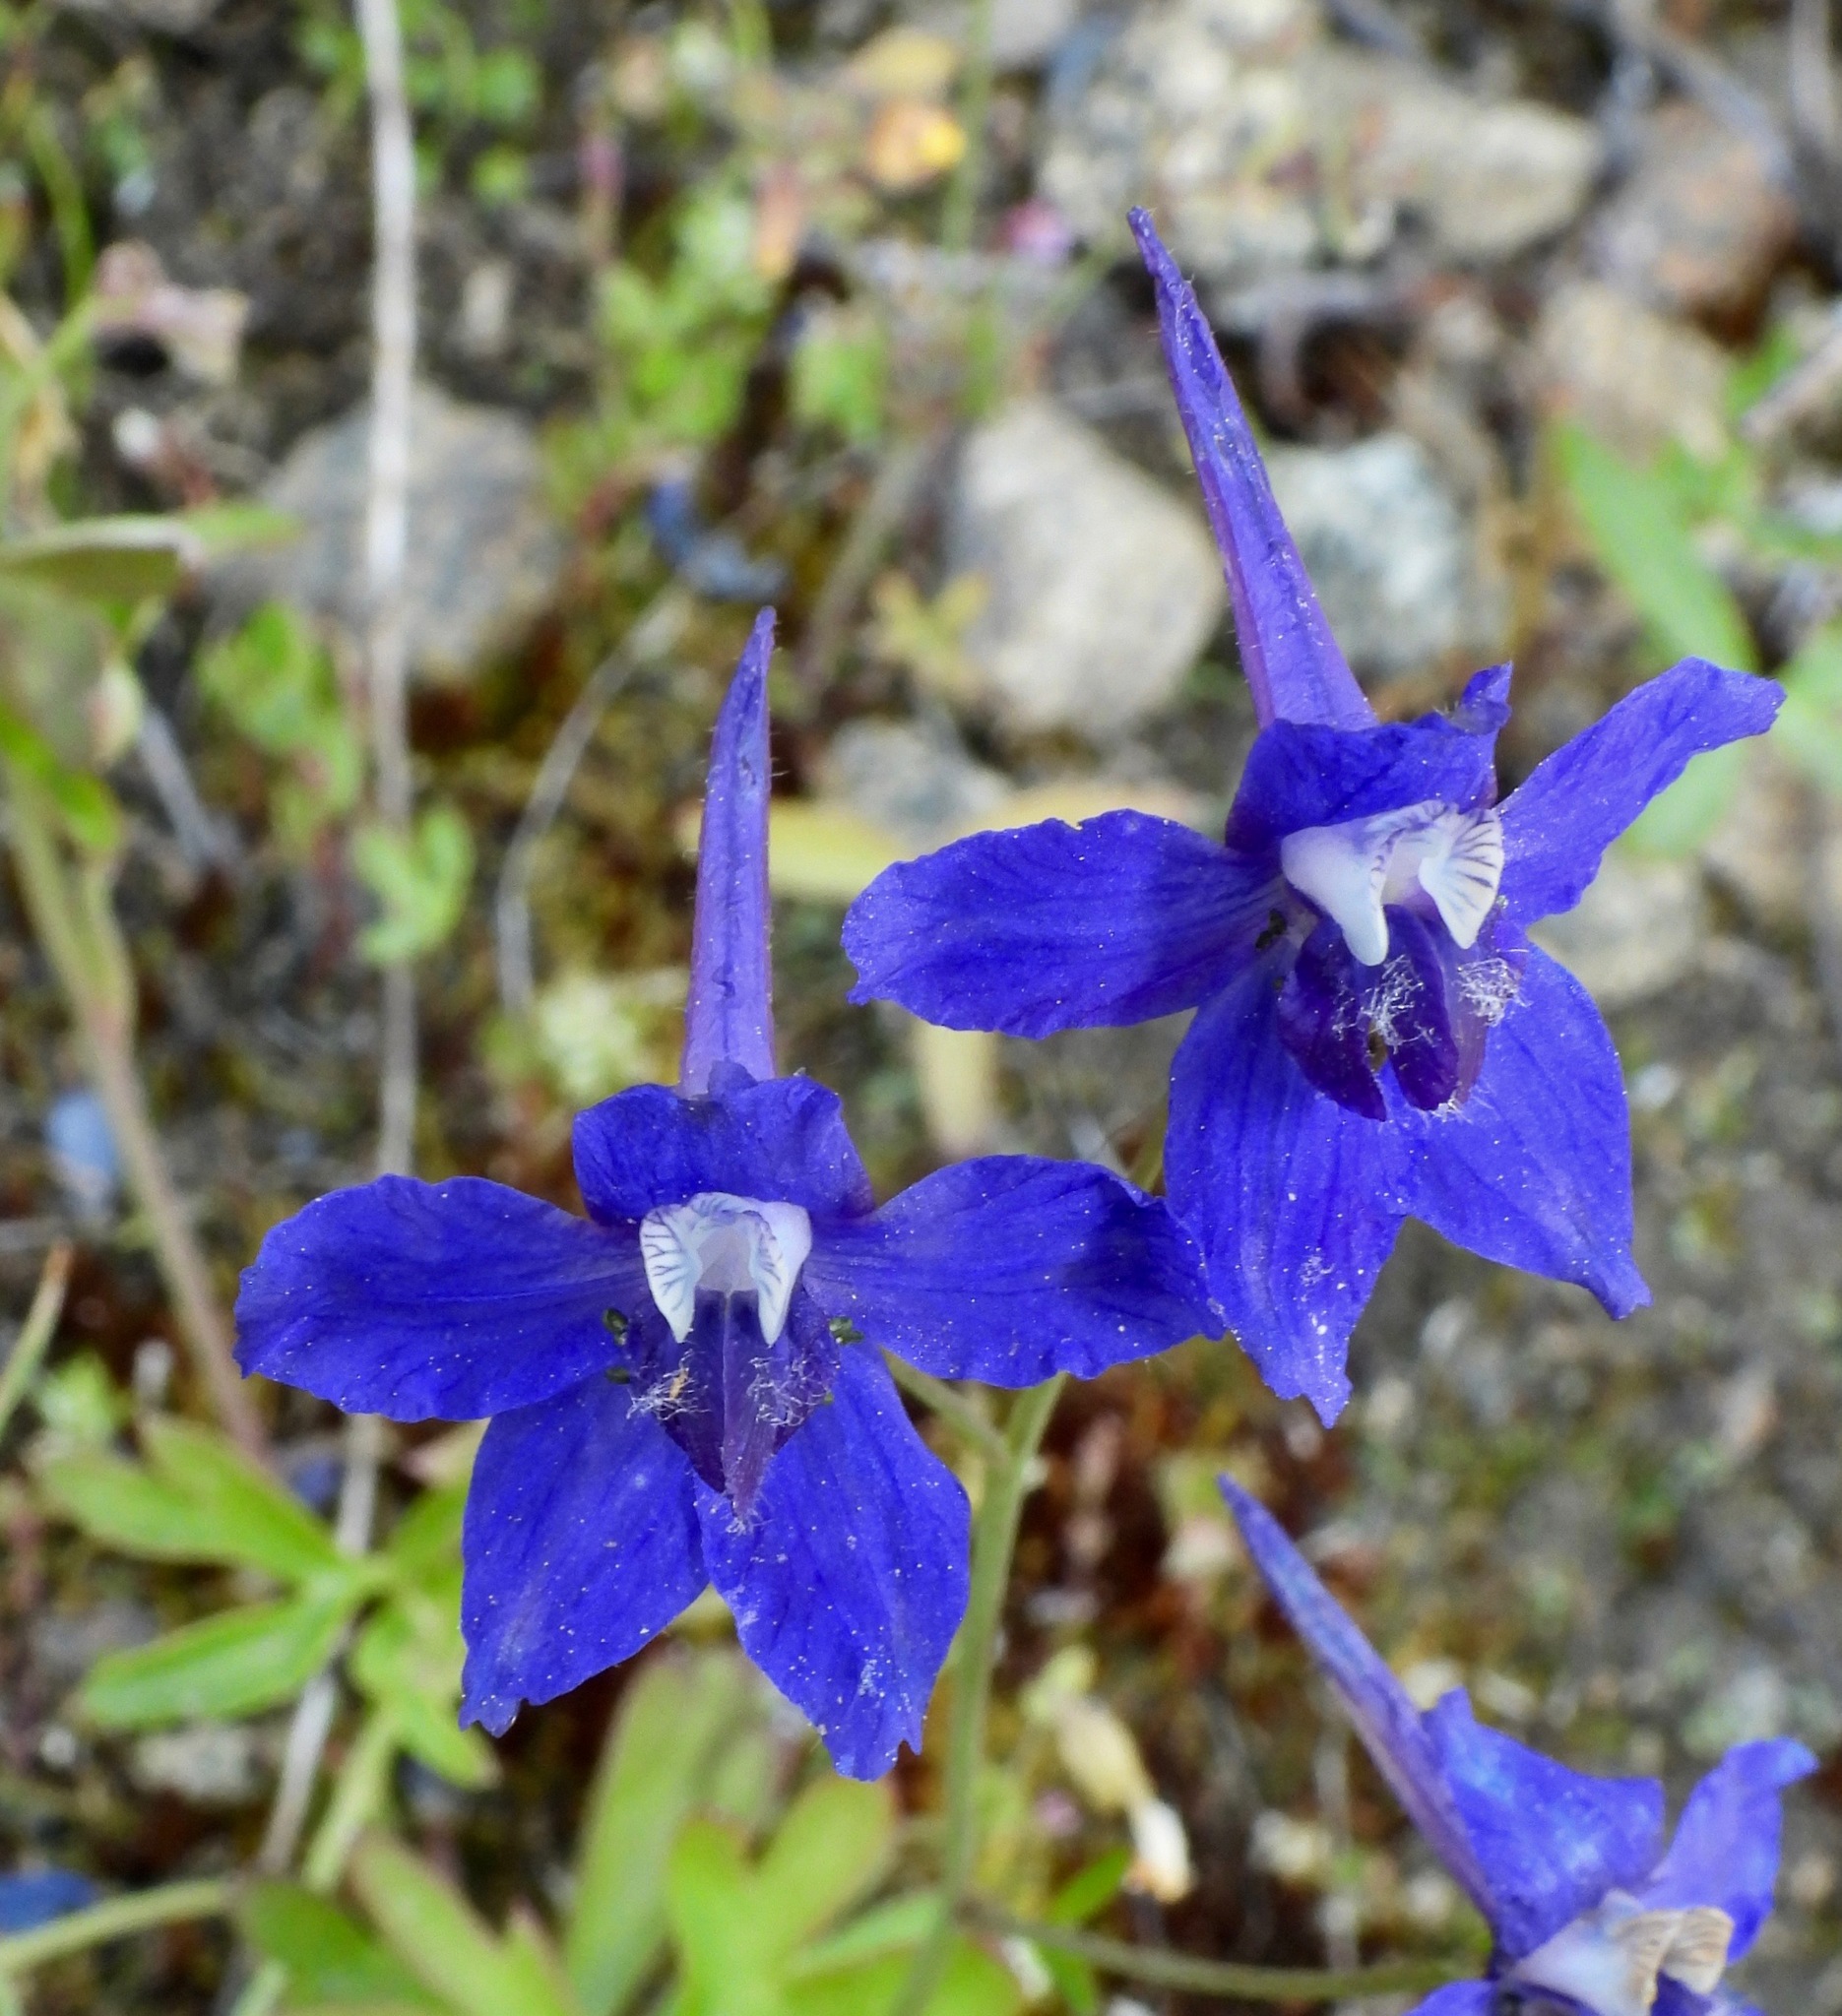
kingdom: Plantae
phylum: Tracheophyta
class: Magnoliopsida
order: Ranunculales
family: Ranunculaceae
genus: Delphinium
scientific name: Delphinium nuttallianum
